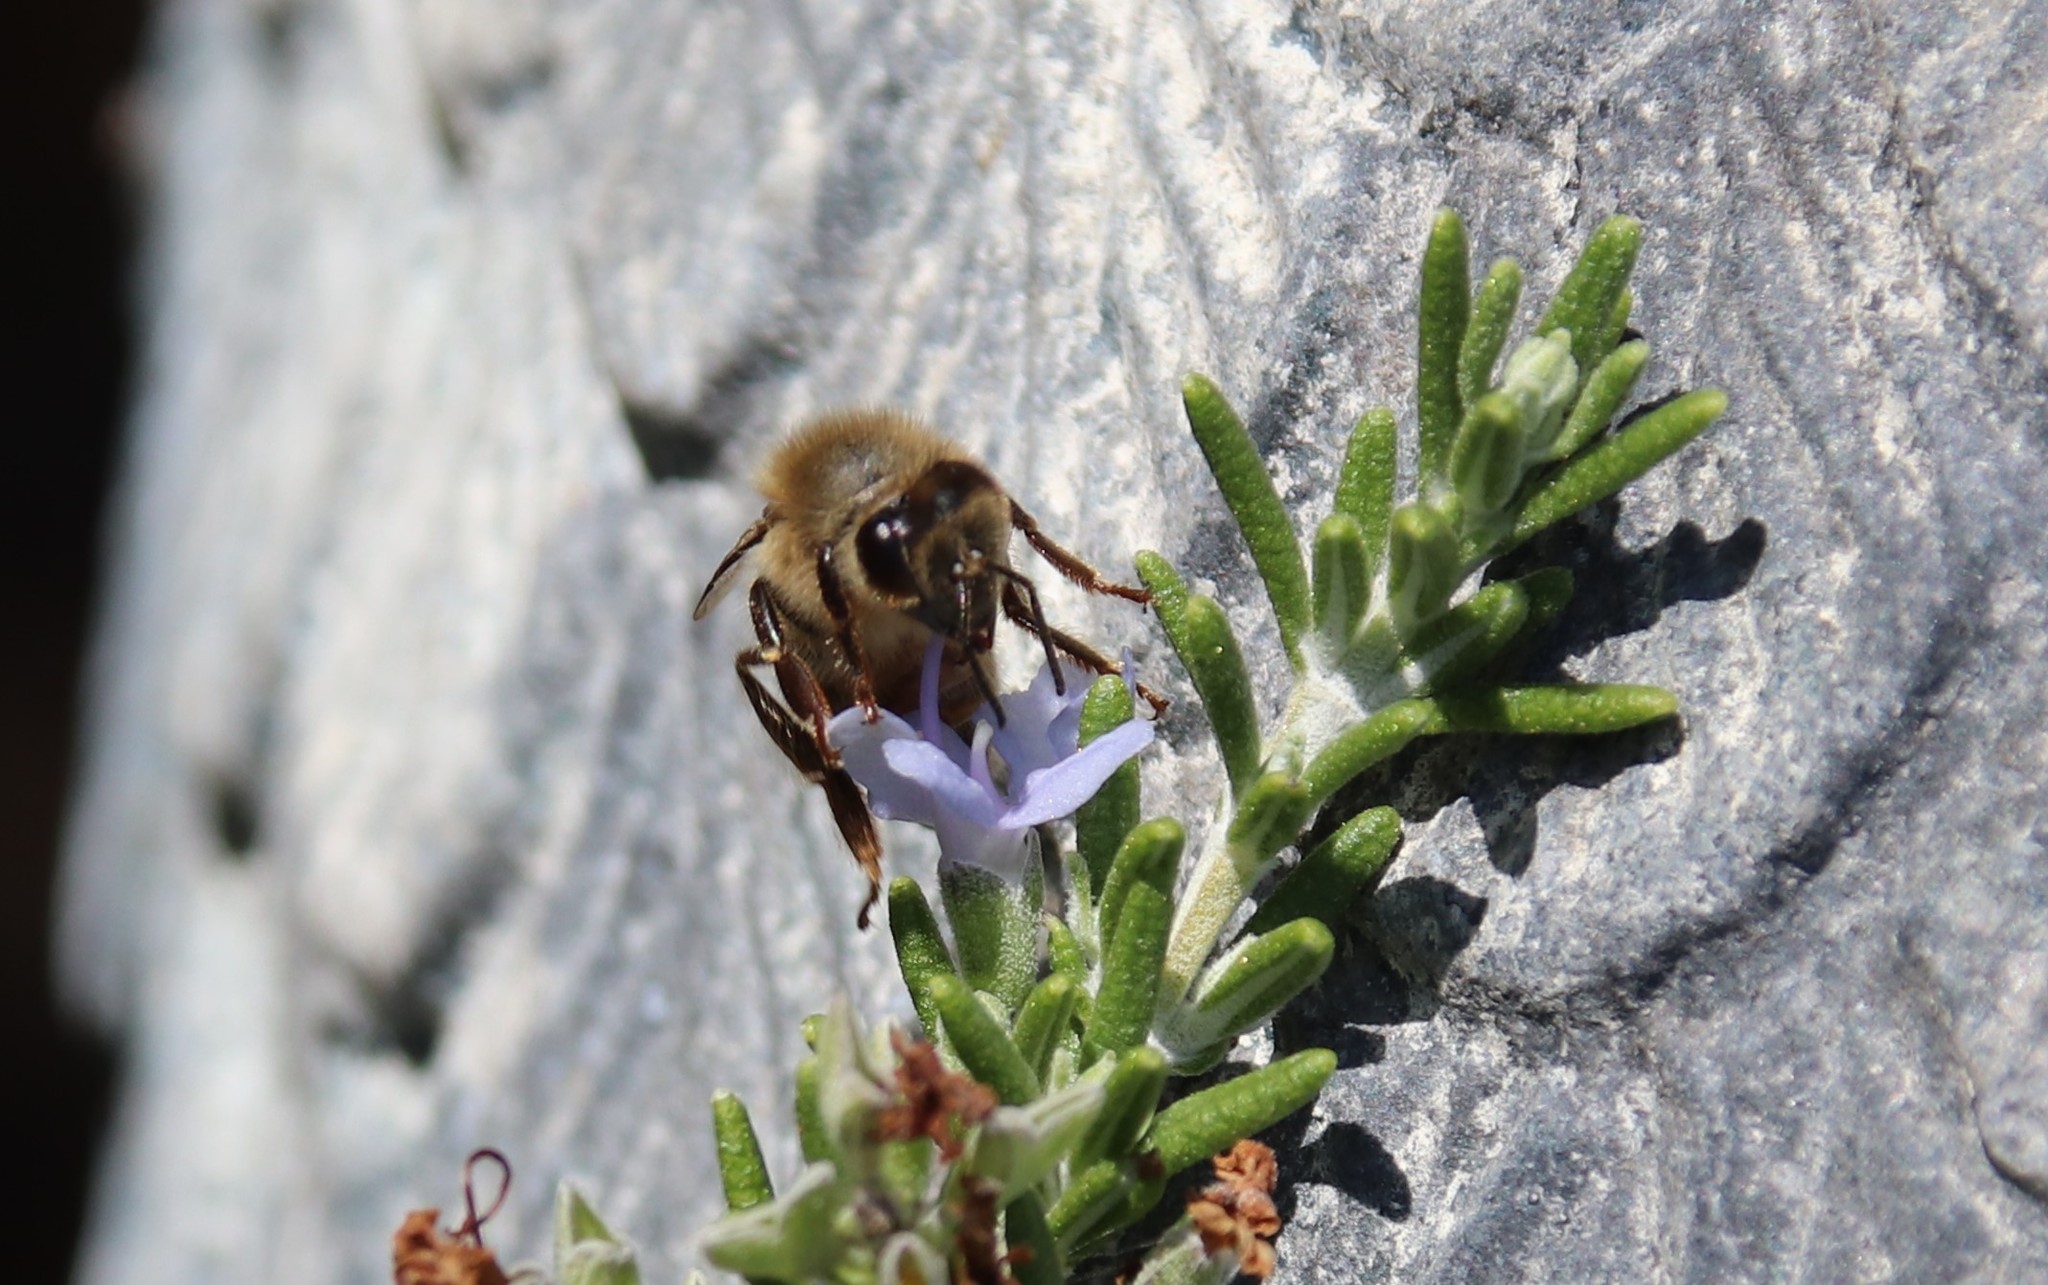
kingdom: Animalia
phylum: Arthropoda
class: Insecta
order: Hymenoptera
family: Apidae
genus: Apis
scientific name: Apis mellifera
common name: Honey bee
